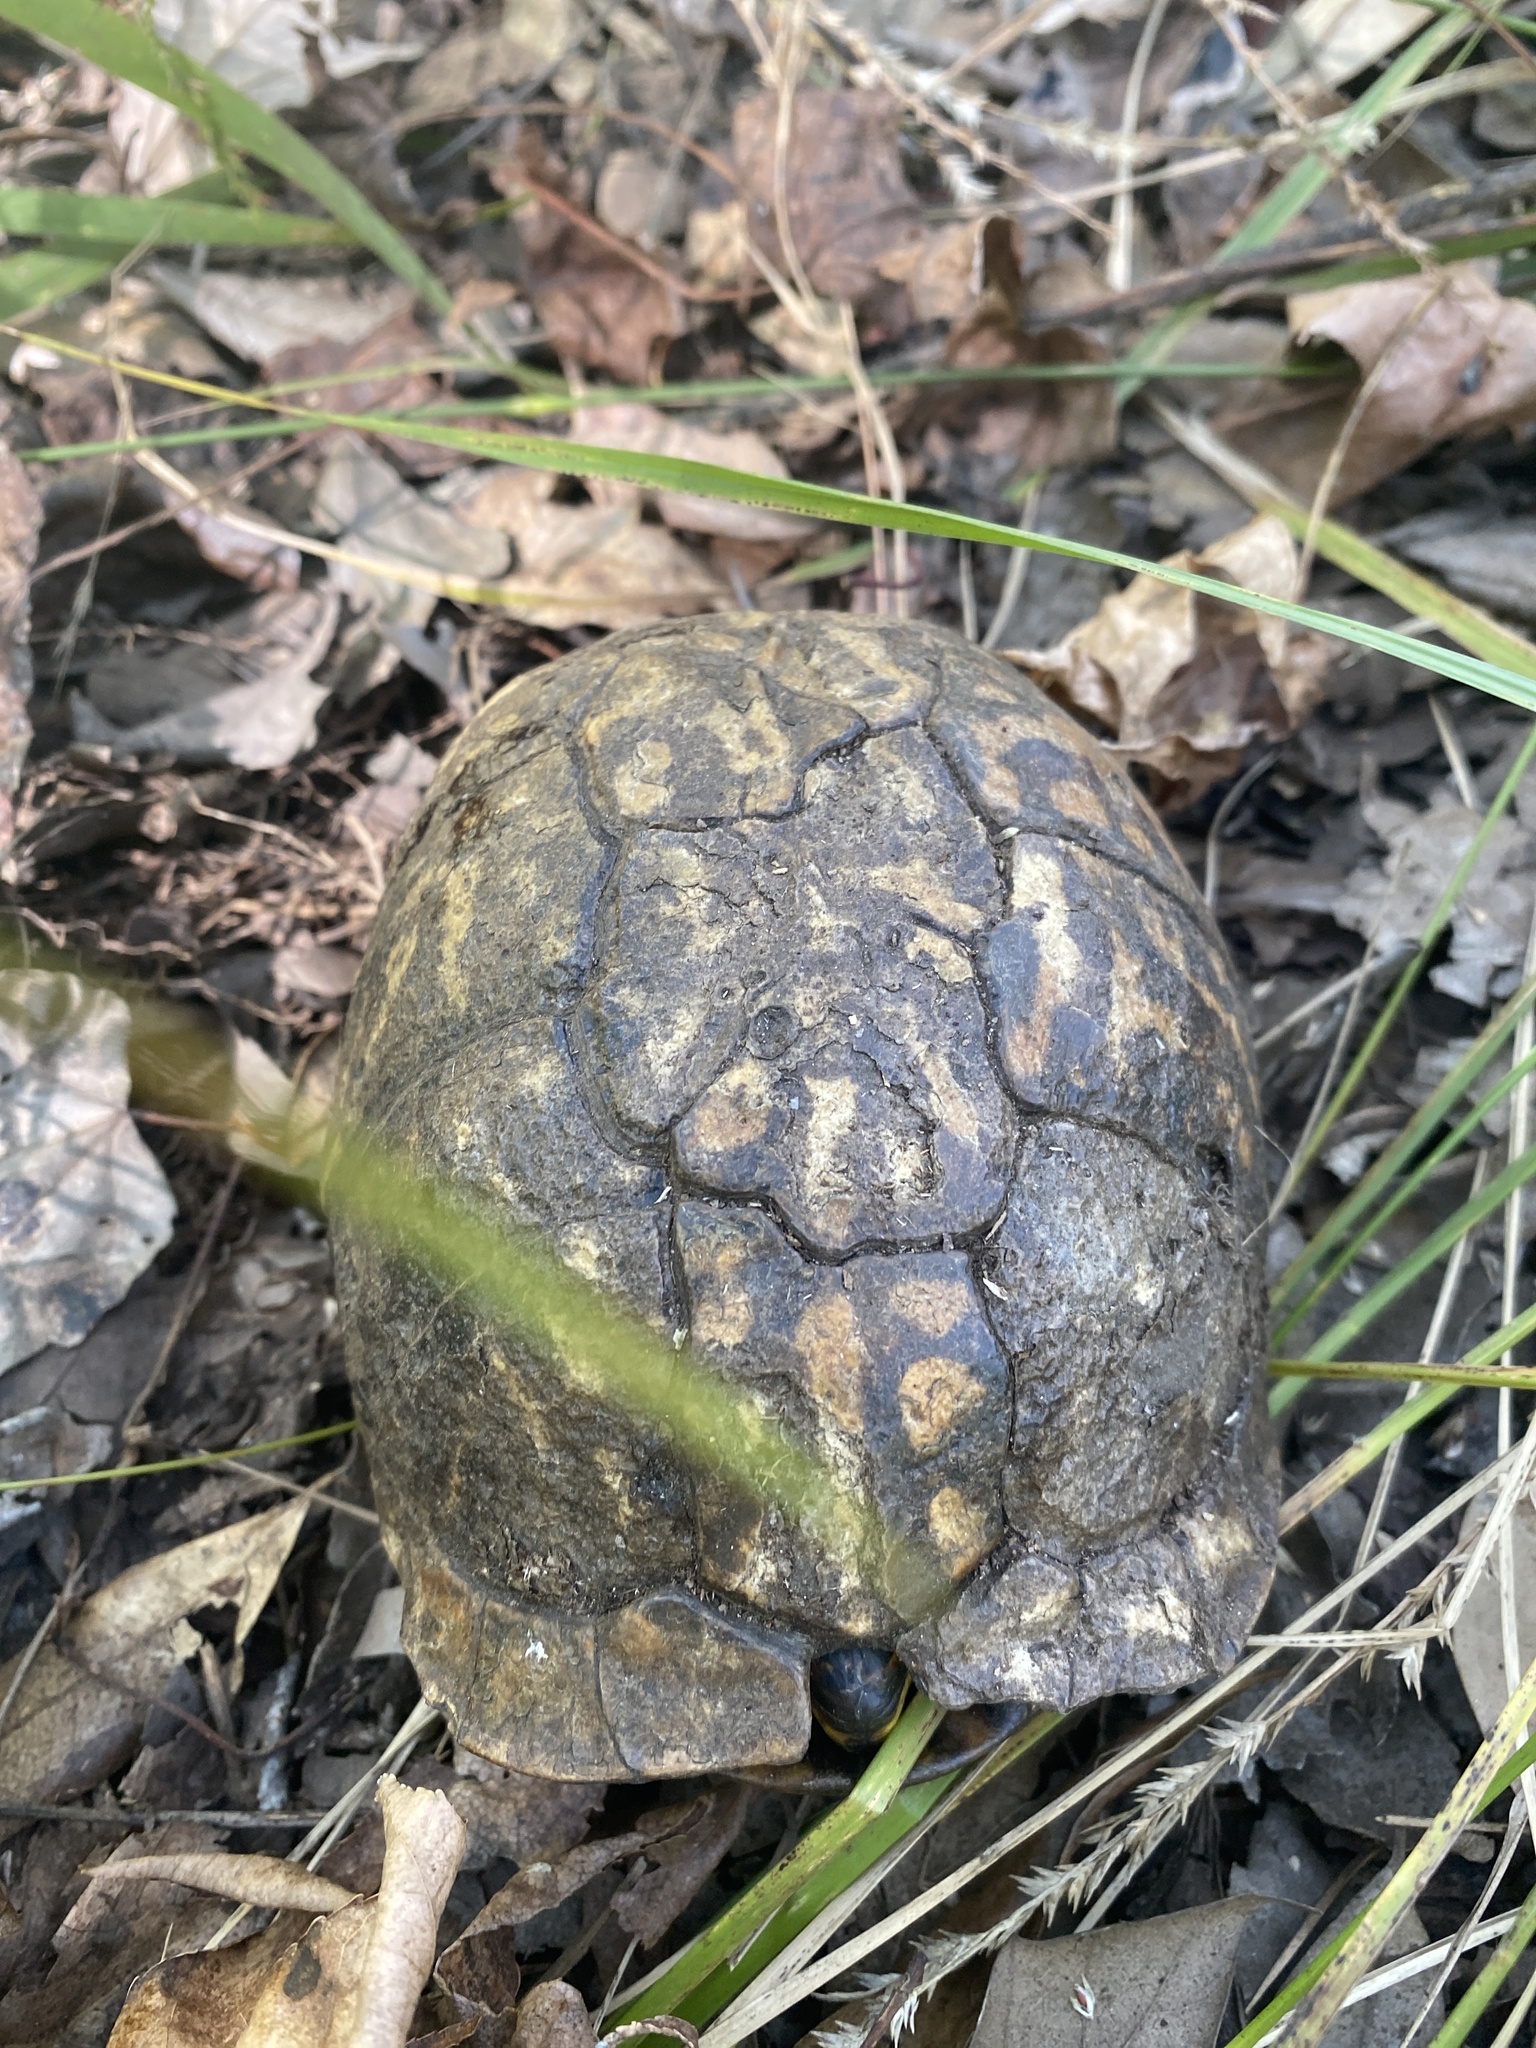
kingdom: Animalia
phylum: Chordata
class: Testudines
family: Emydidae
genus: Terrapene
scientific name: Terrapene carolina
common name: Common box turtle
